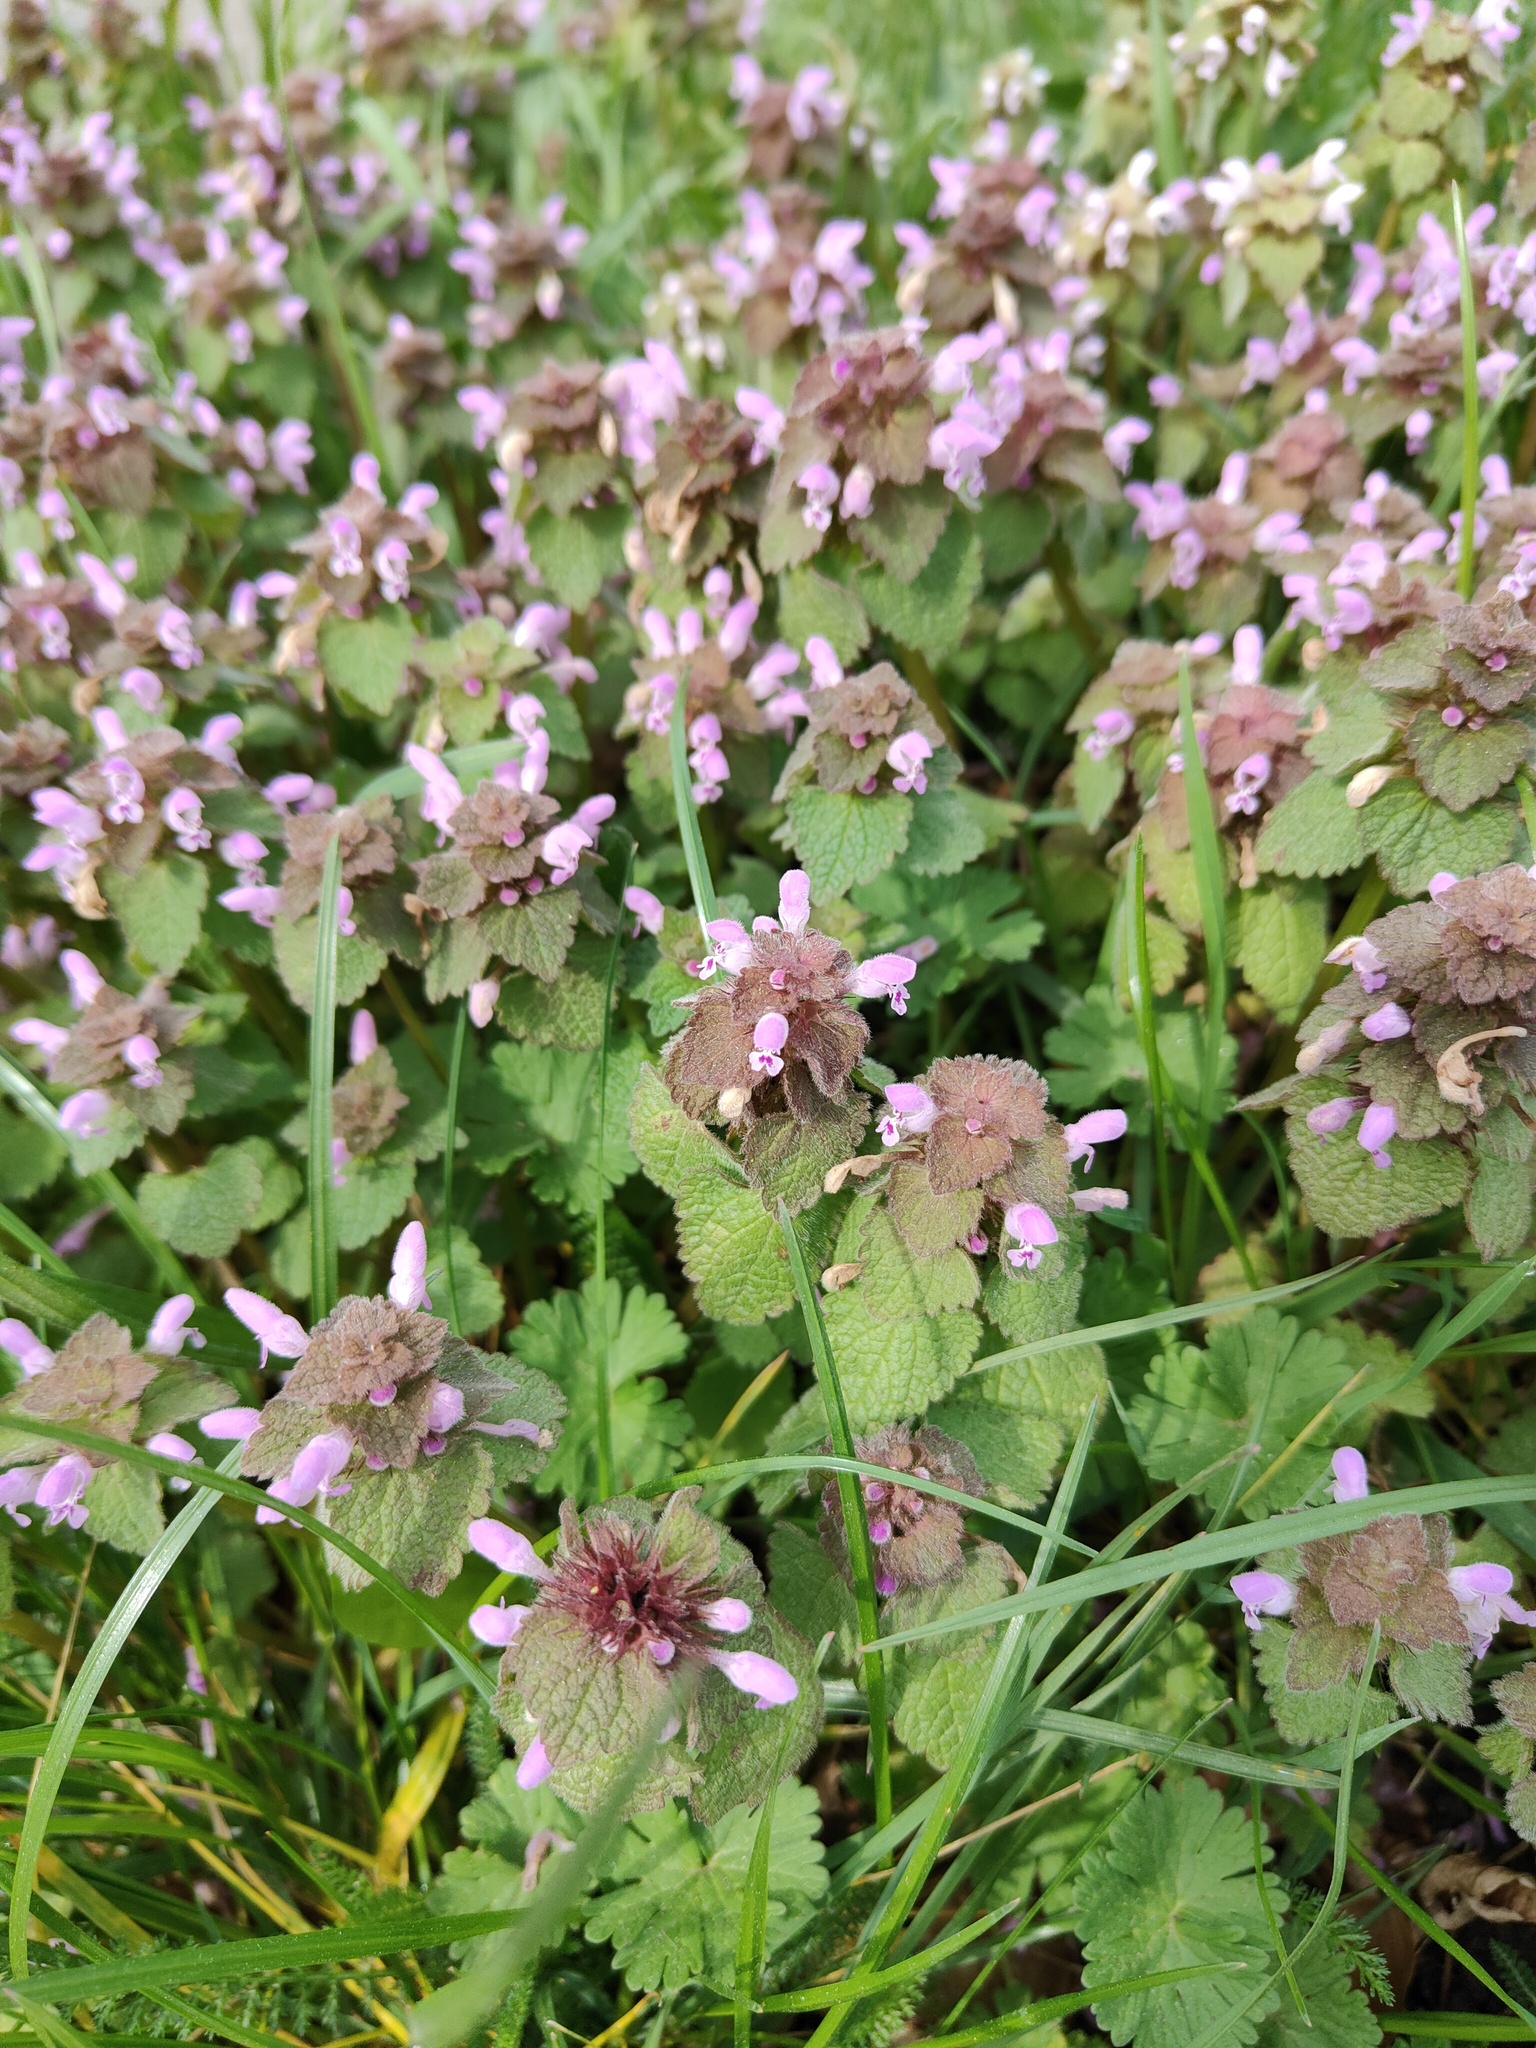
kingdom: Plantae
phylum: Tracheophyta
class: Magnoliopsida
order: Lamiales
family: Lamiaceae
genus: Lamium
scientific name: Lamium purpureum
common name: Red dead-nettle
